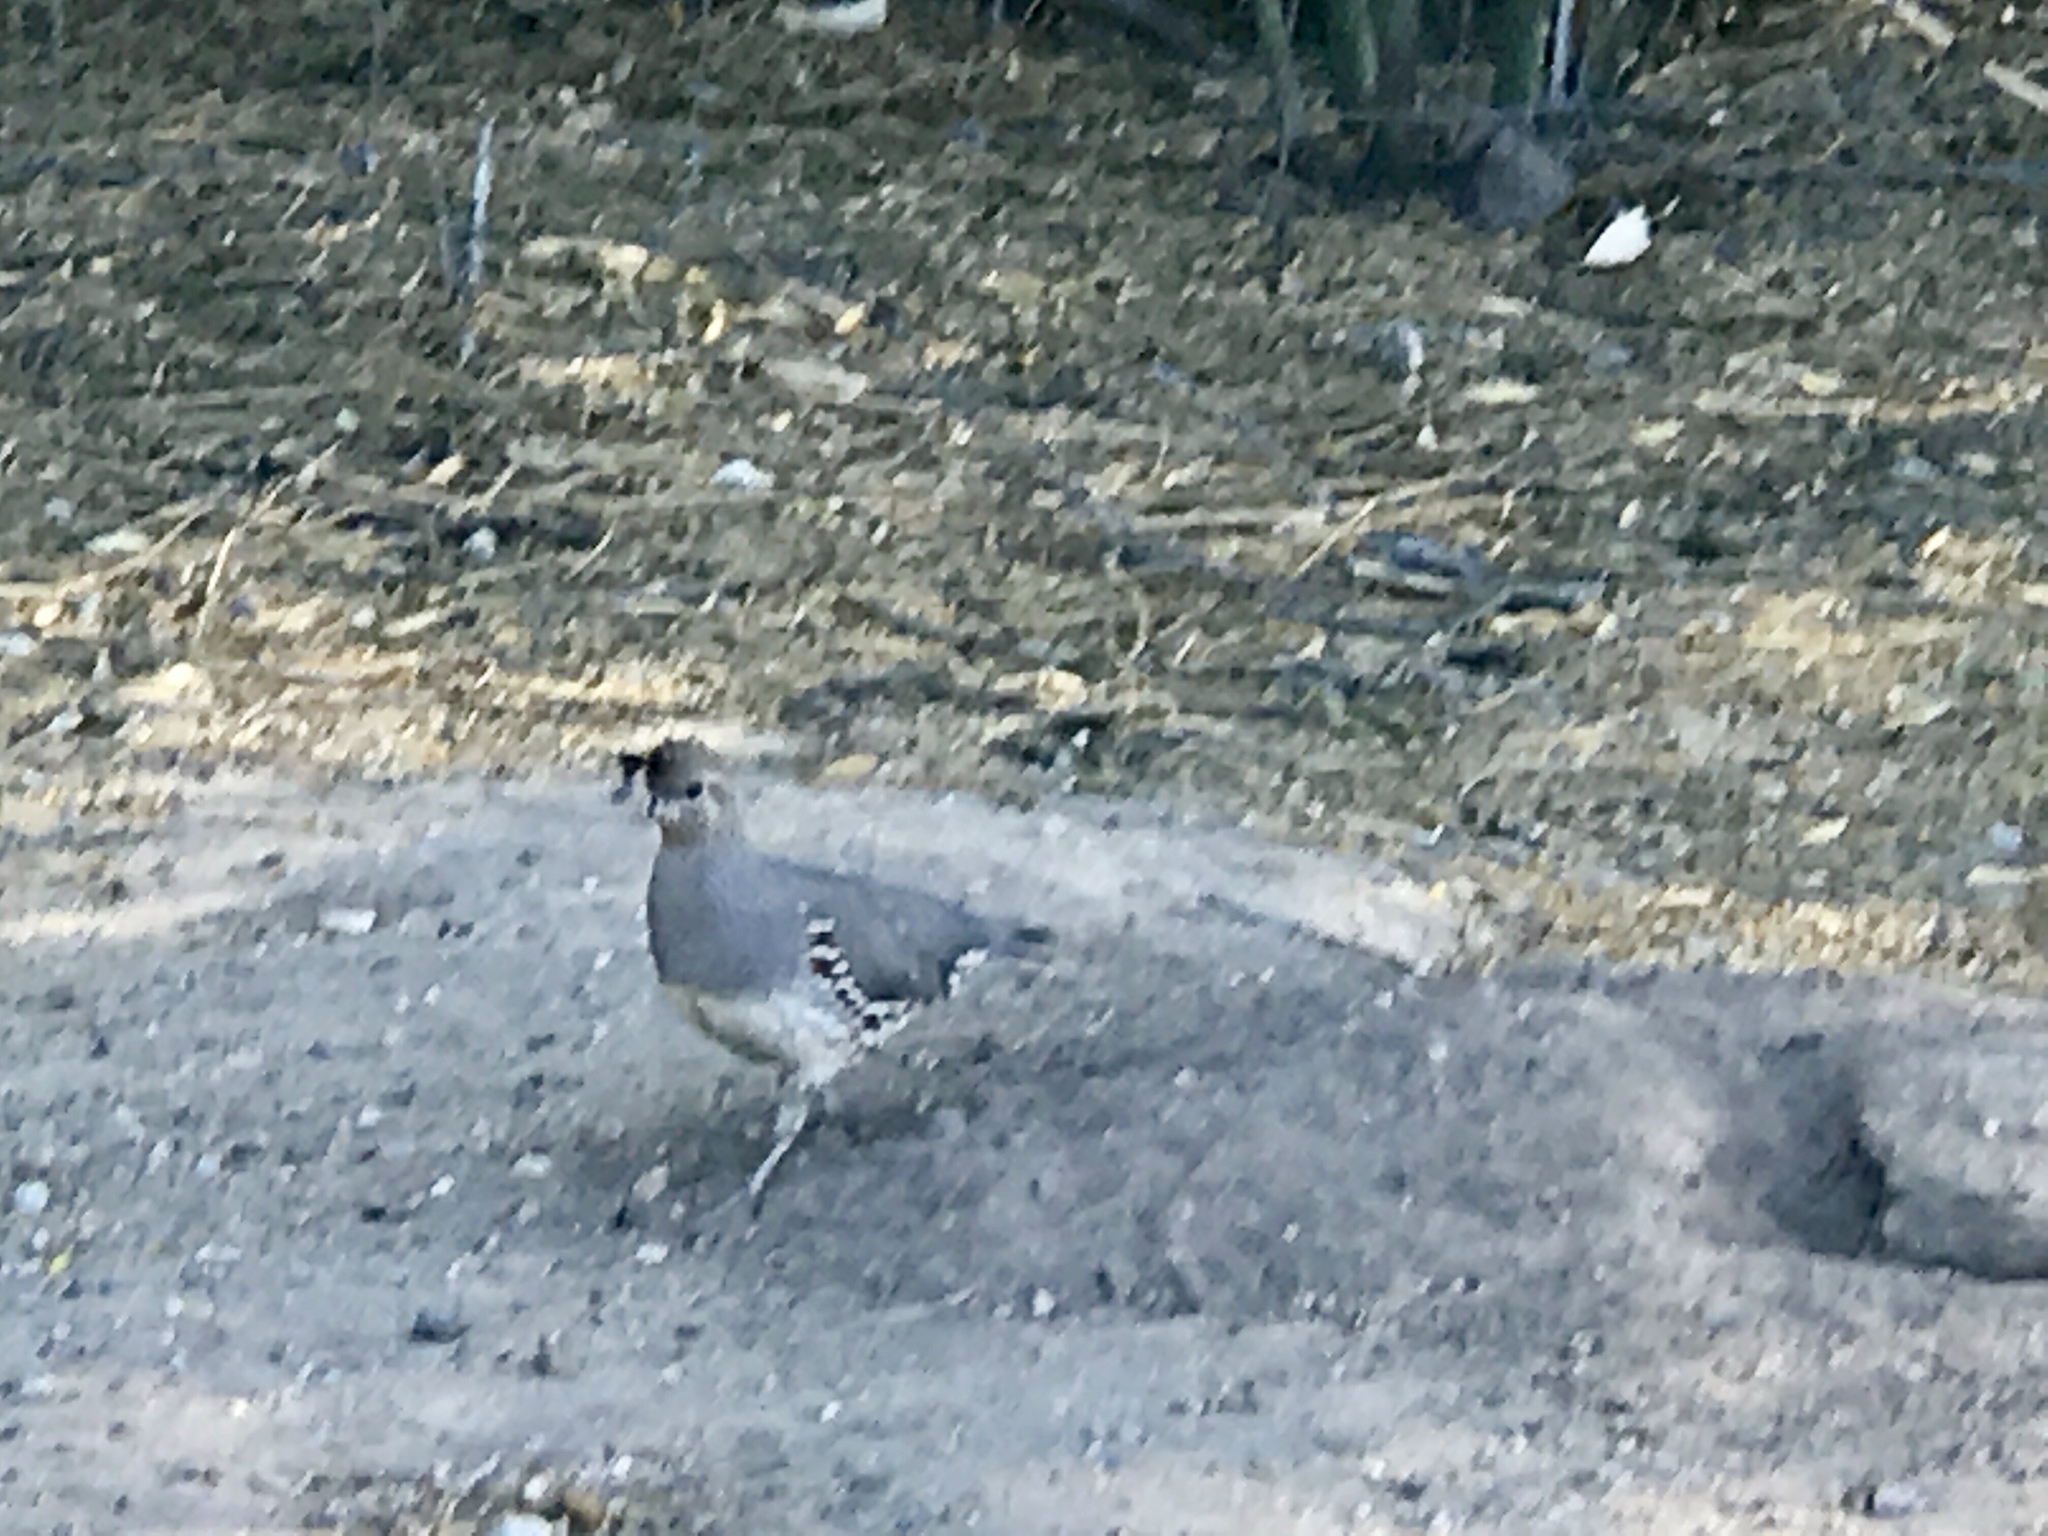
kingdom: Animalia
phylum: Chordata
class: Aves
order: Galliformes
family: Odontophoridae
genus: Callipepla
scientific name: Callipepla gambelii
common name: Gambel's quail
